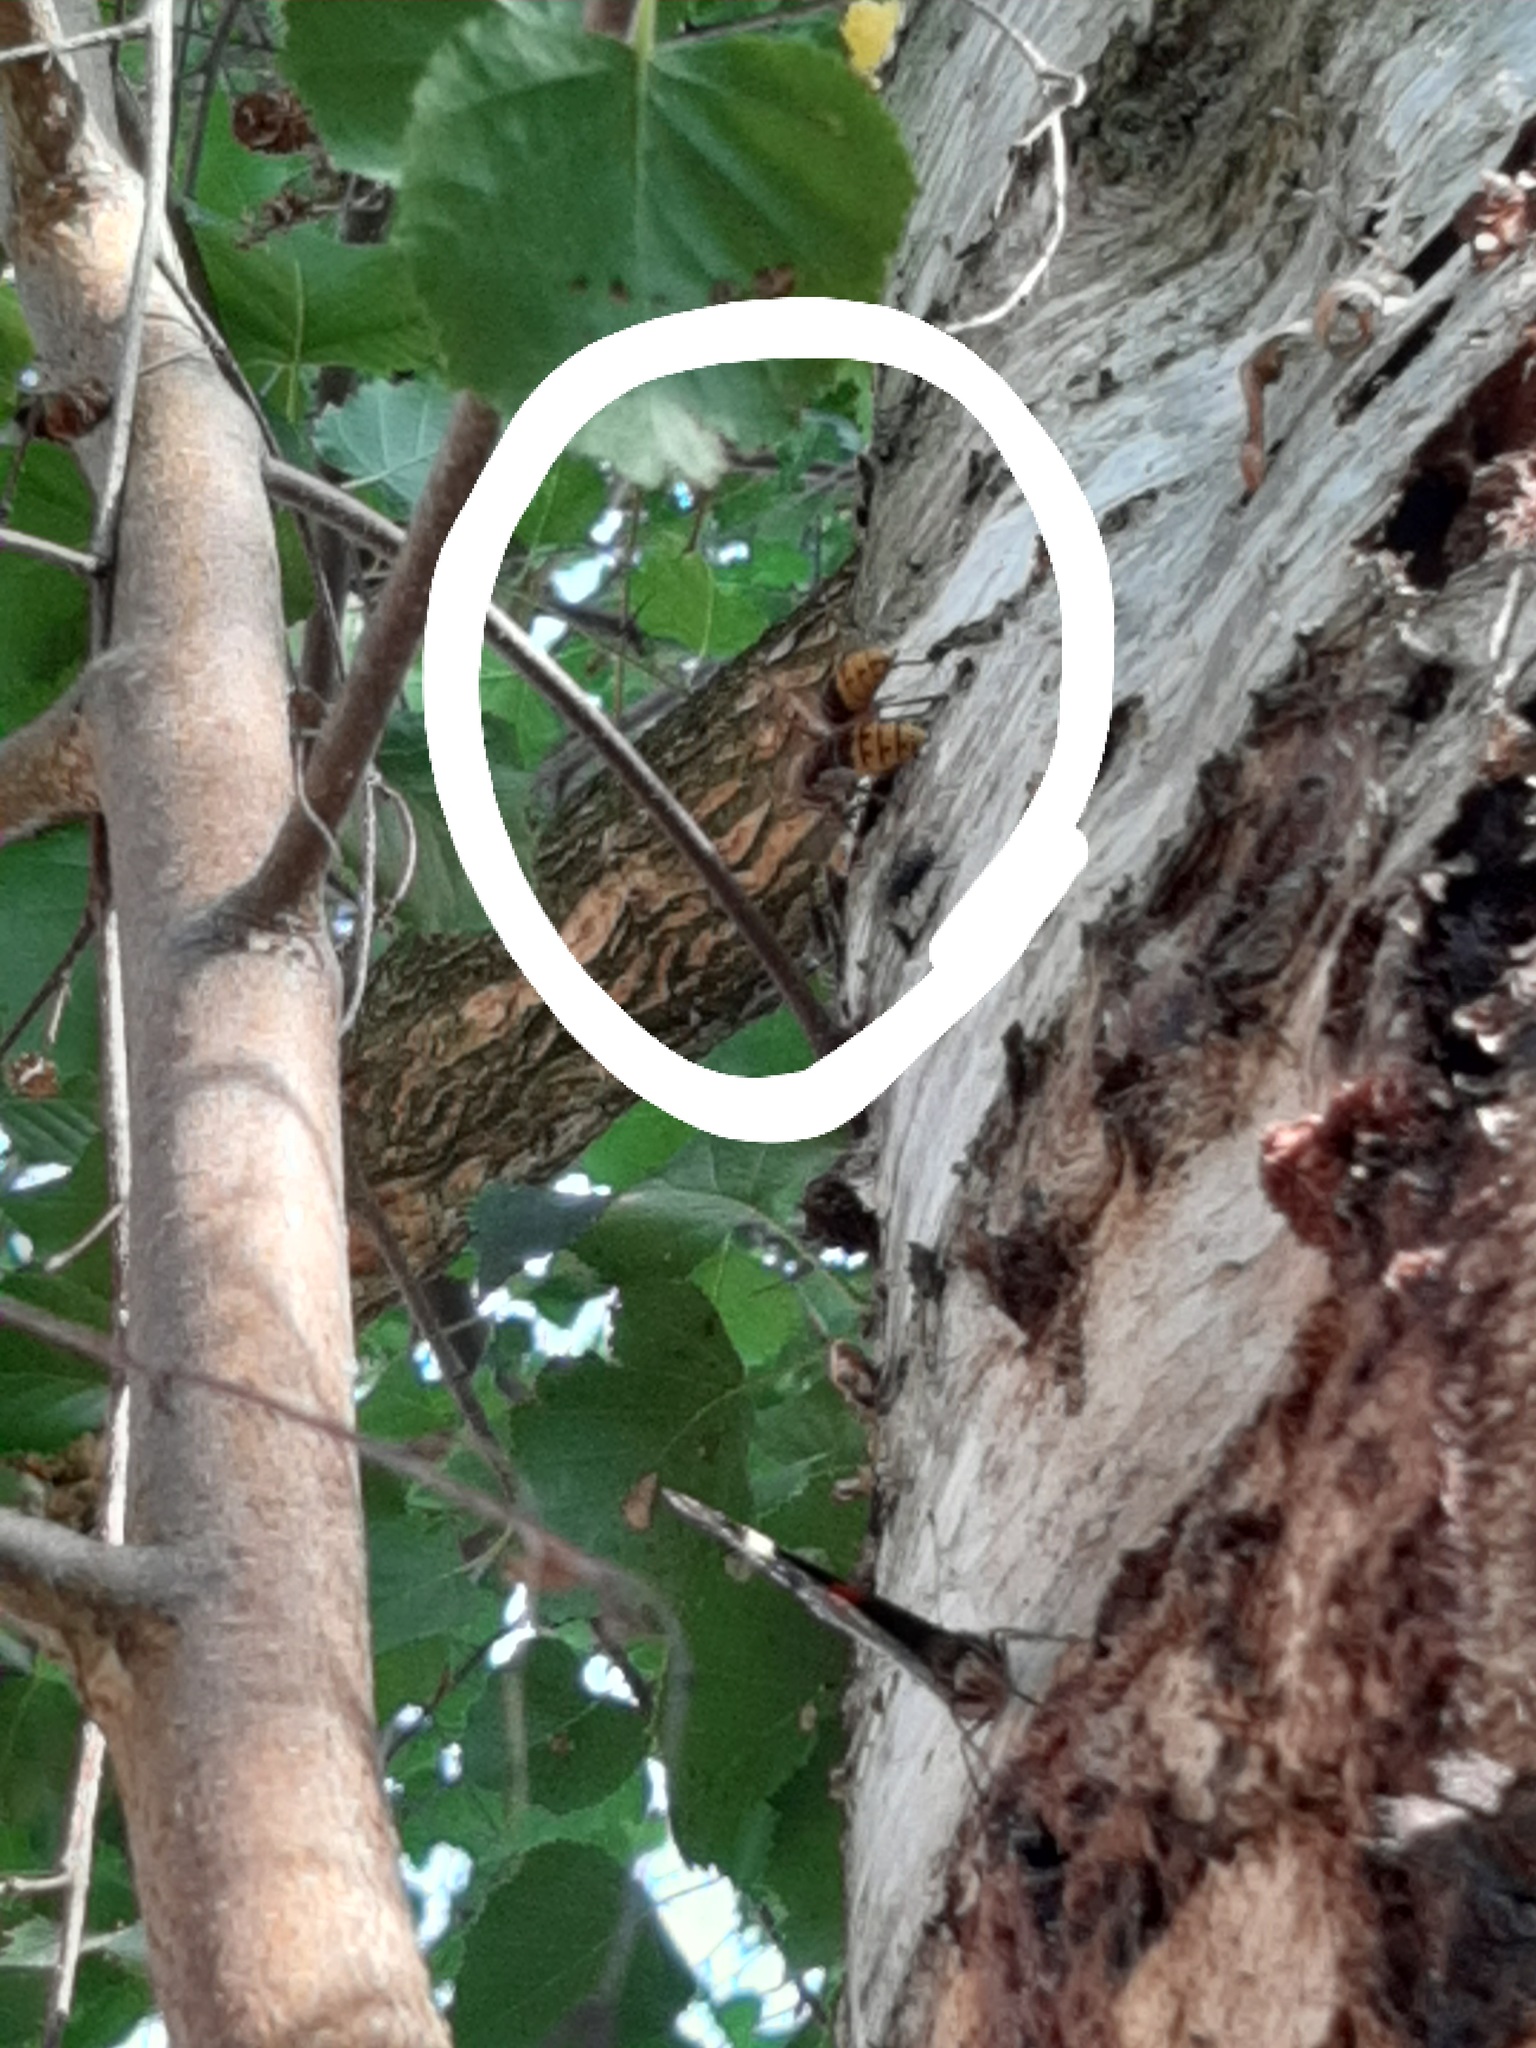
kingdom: Animalia
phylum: Arthropoda
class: Insecta
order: Hymenoptera
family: Vespidae
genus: Vespa
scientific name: Vespa crabro
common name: Hornet
